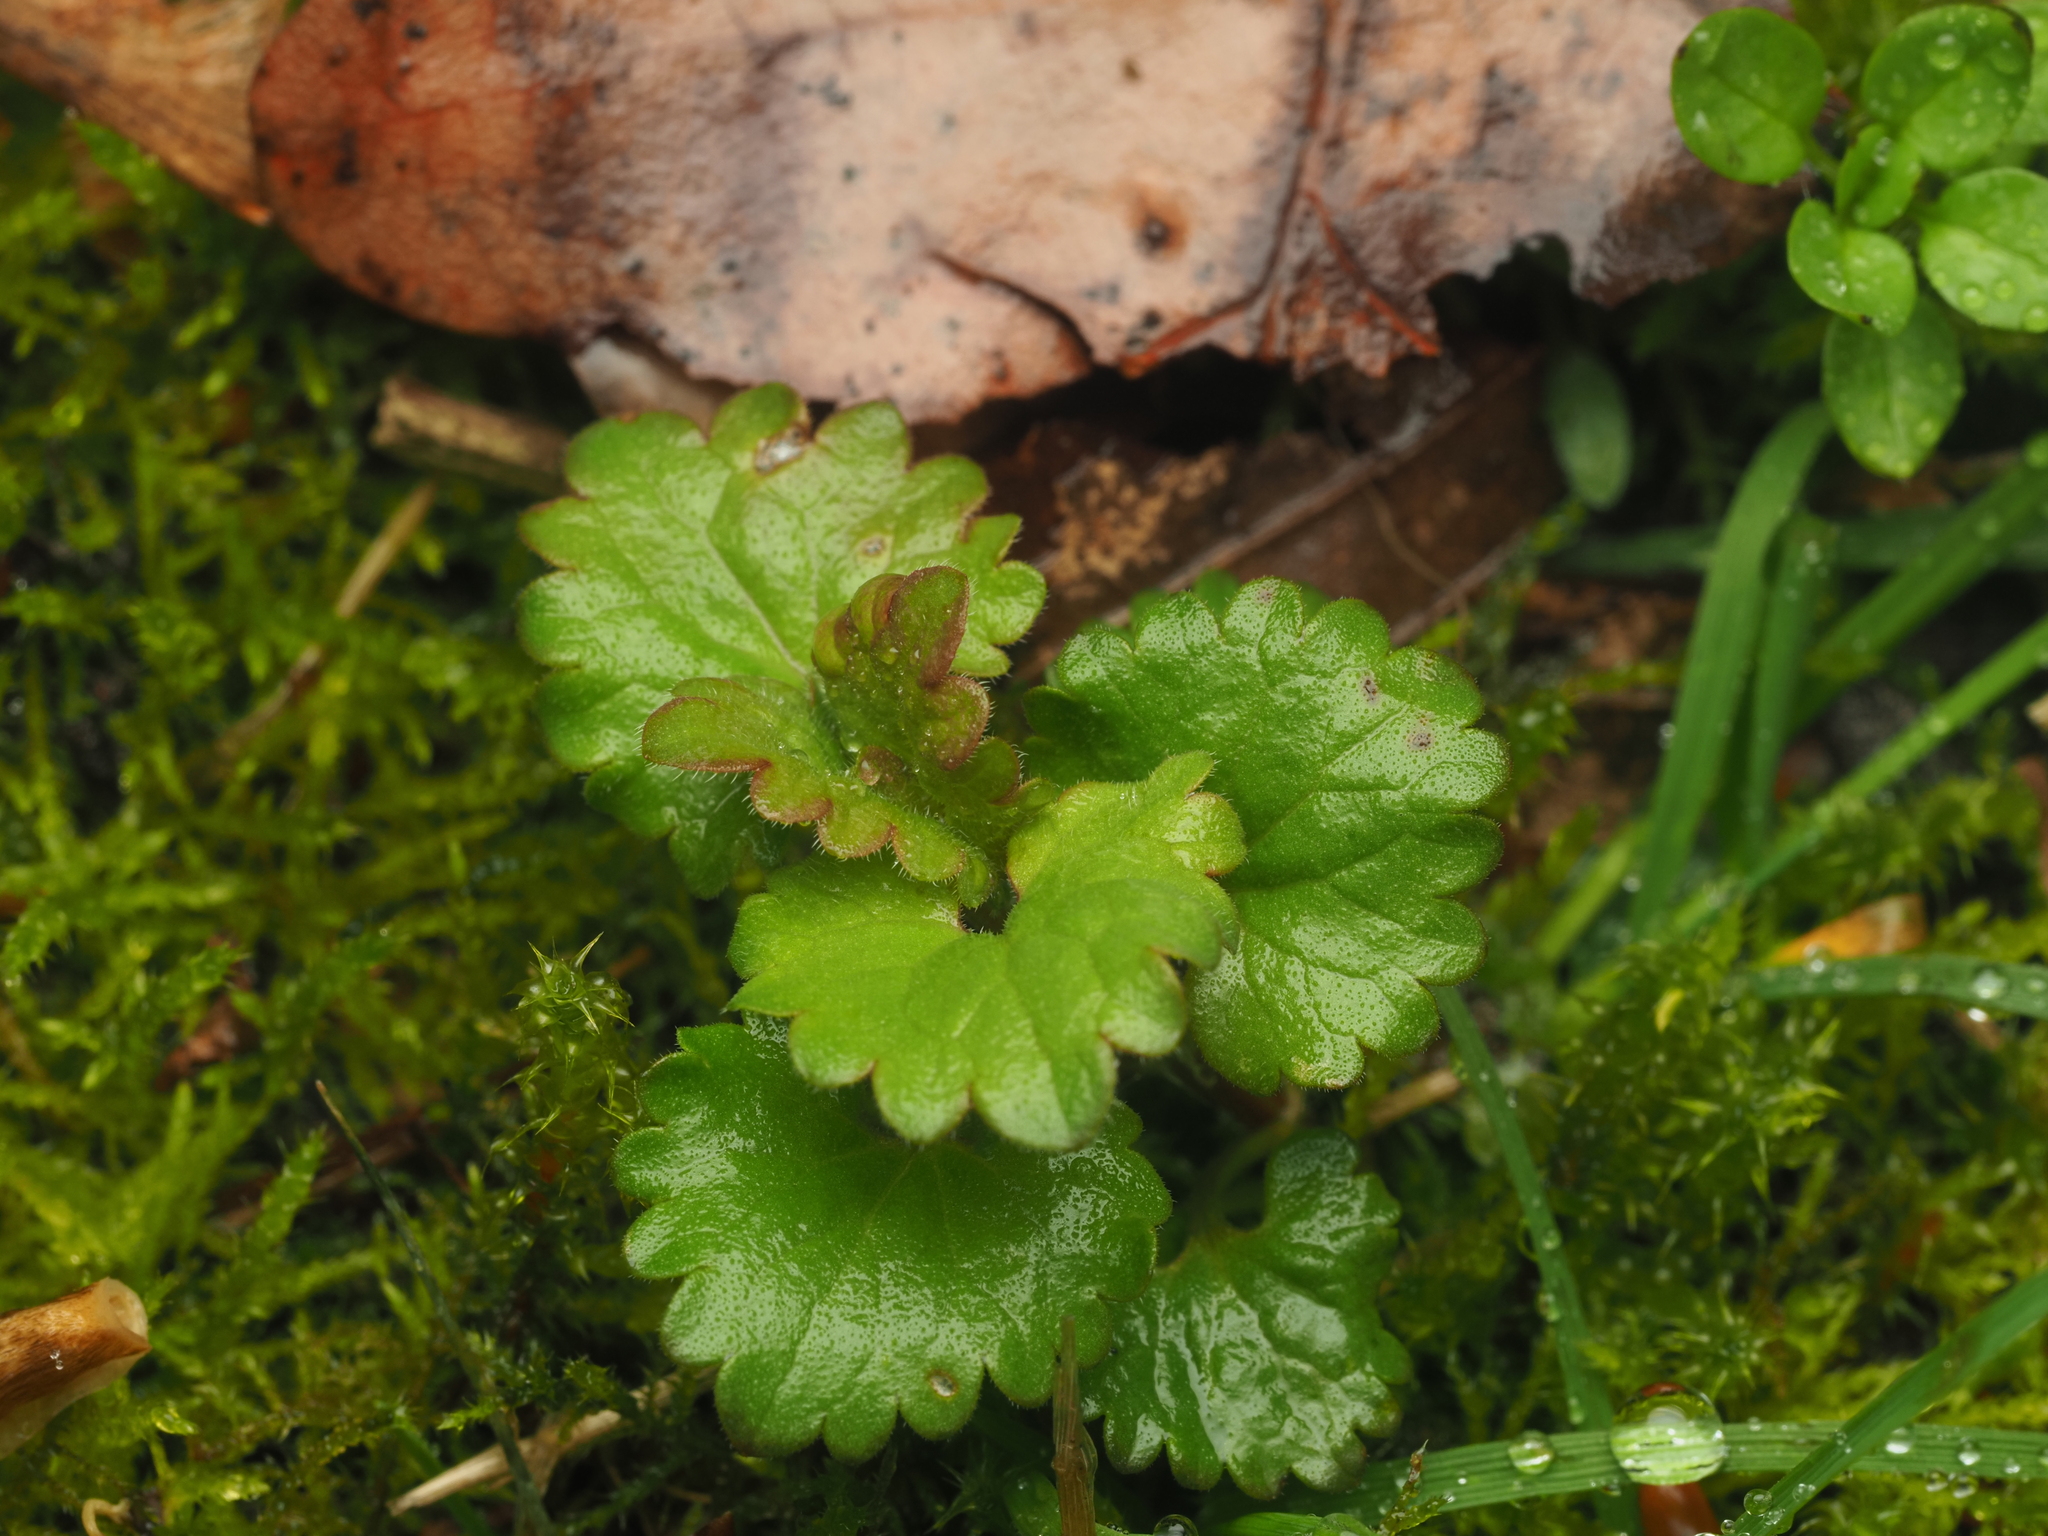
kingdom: Plantae
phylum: Tracheophyta
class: Magnoliopsida
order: Lamiales
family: Lamiaceae
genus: Glechoma
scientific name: Glechoma hederacea
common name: Ground ivy
